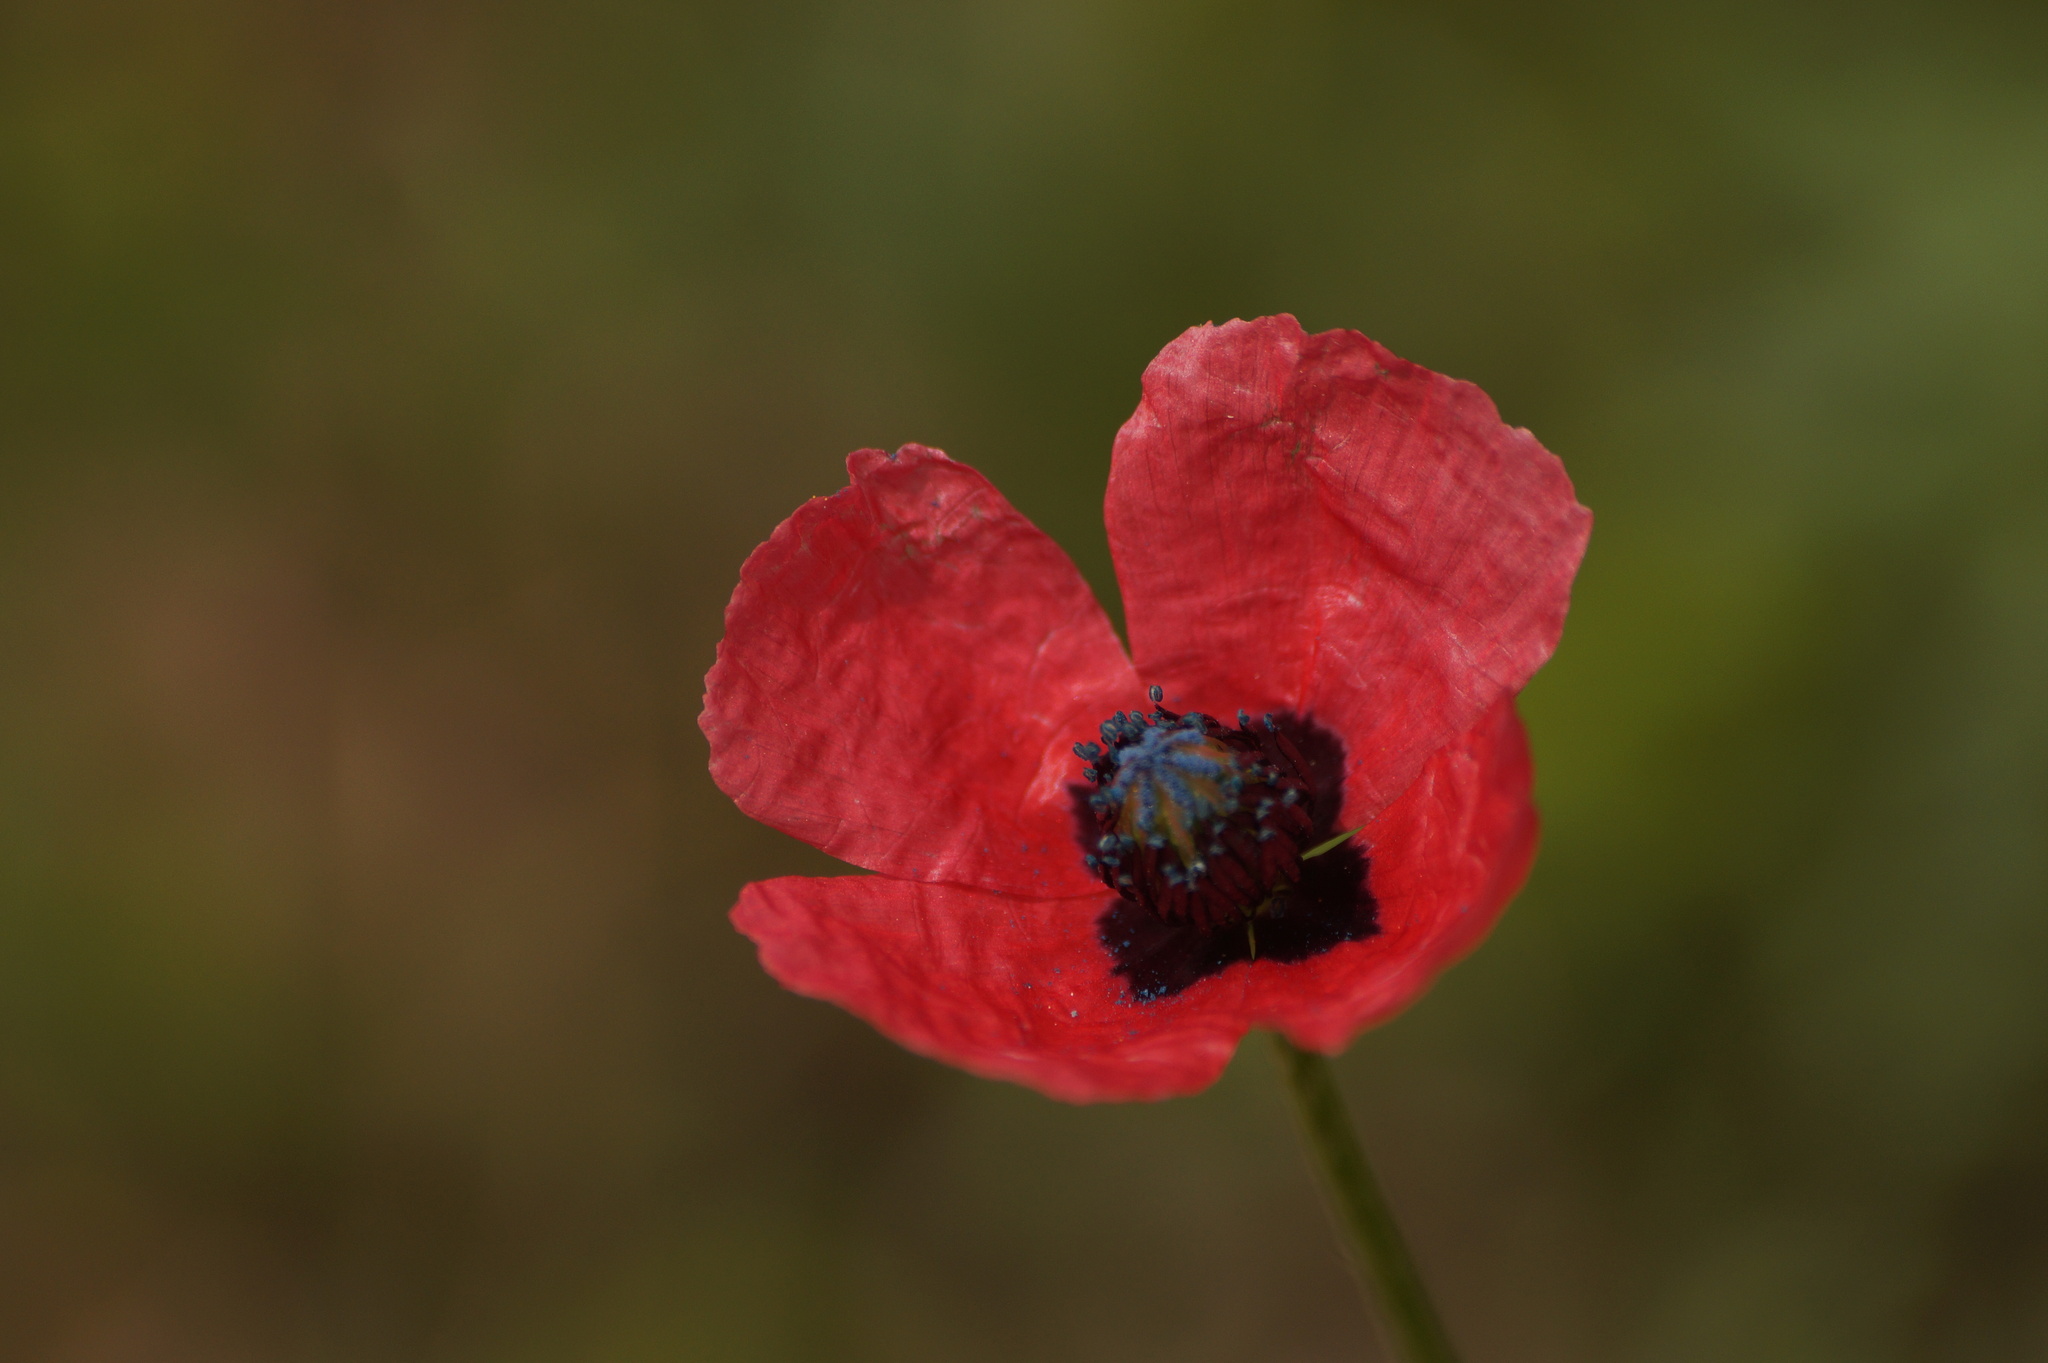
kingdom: Plantae
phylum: Tracheophyta
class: Magnoliopsida
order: Ranunculales
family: Papaveraceae
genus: Roemeria
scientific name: Roemeria hispida
